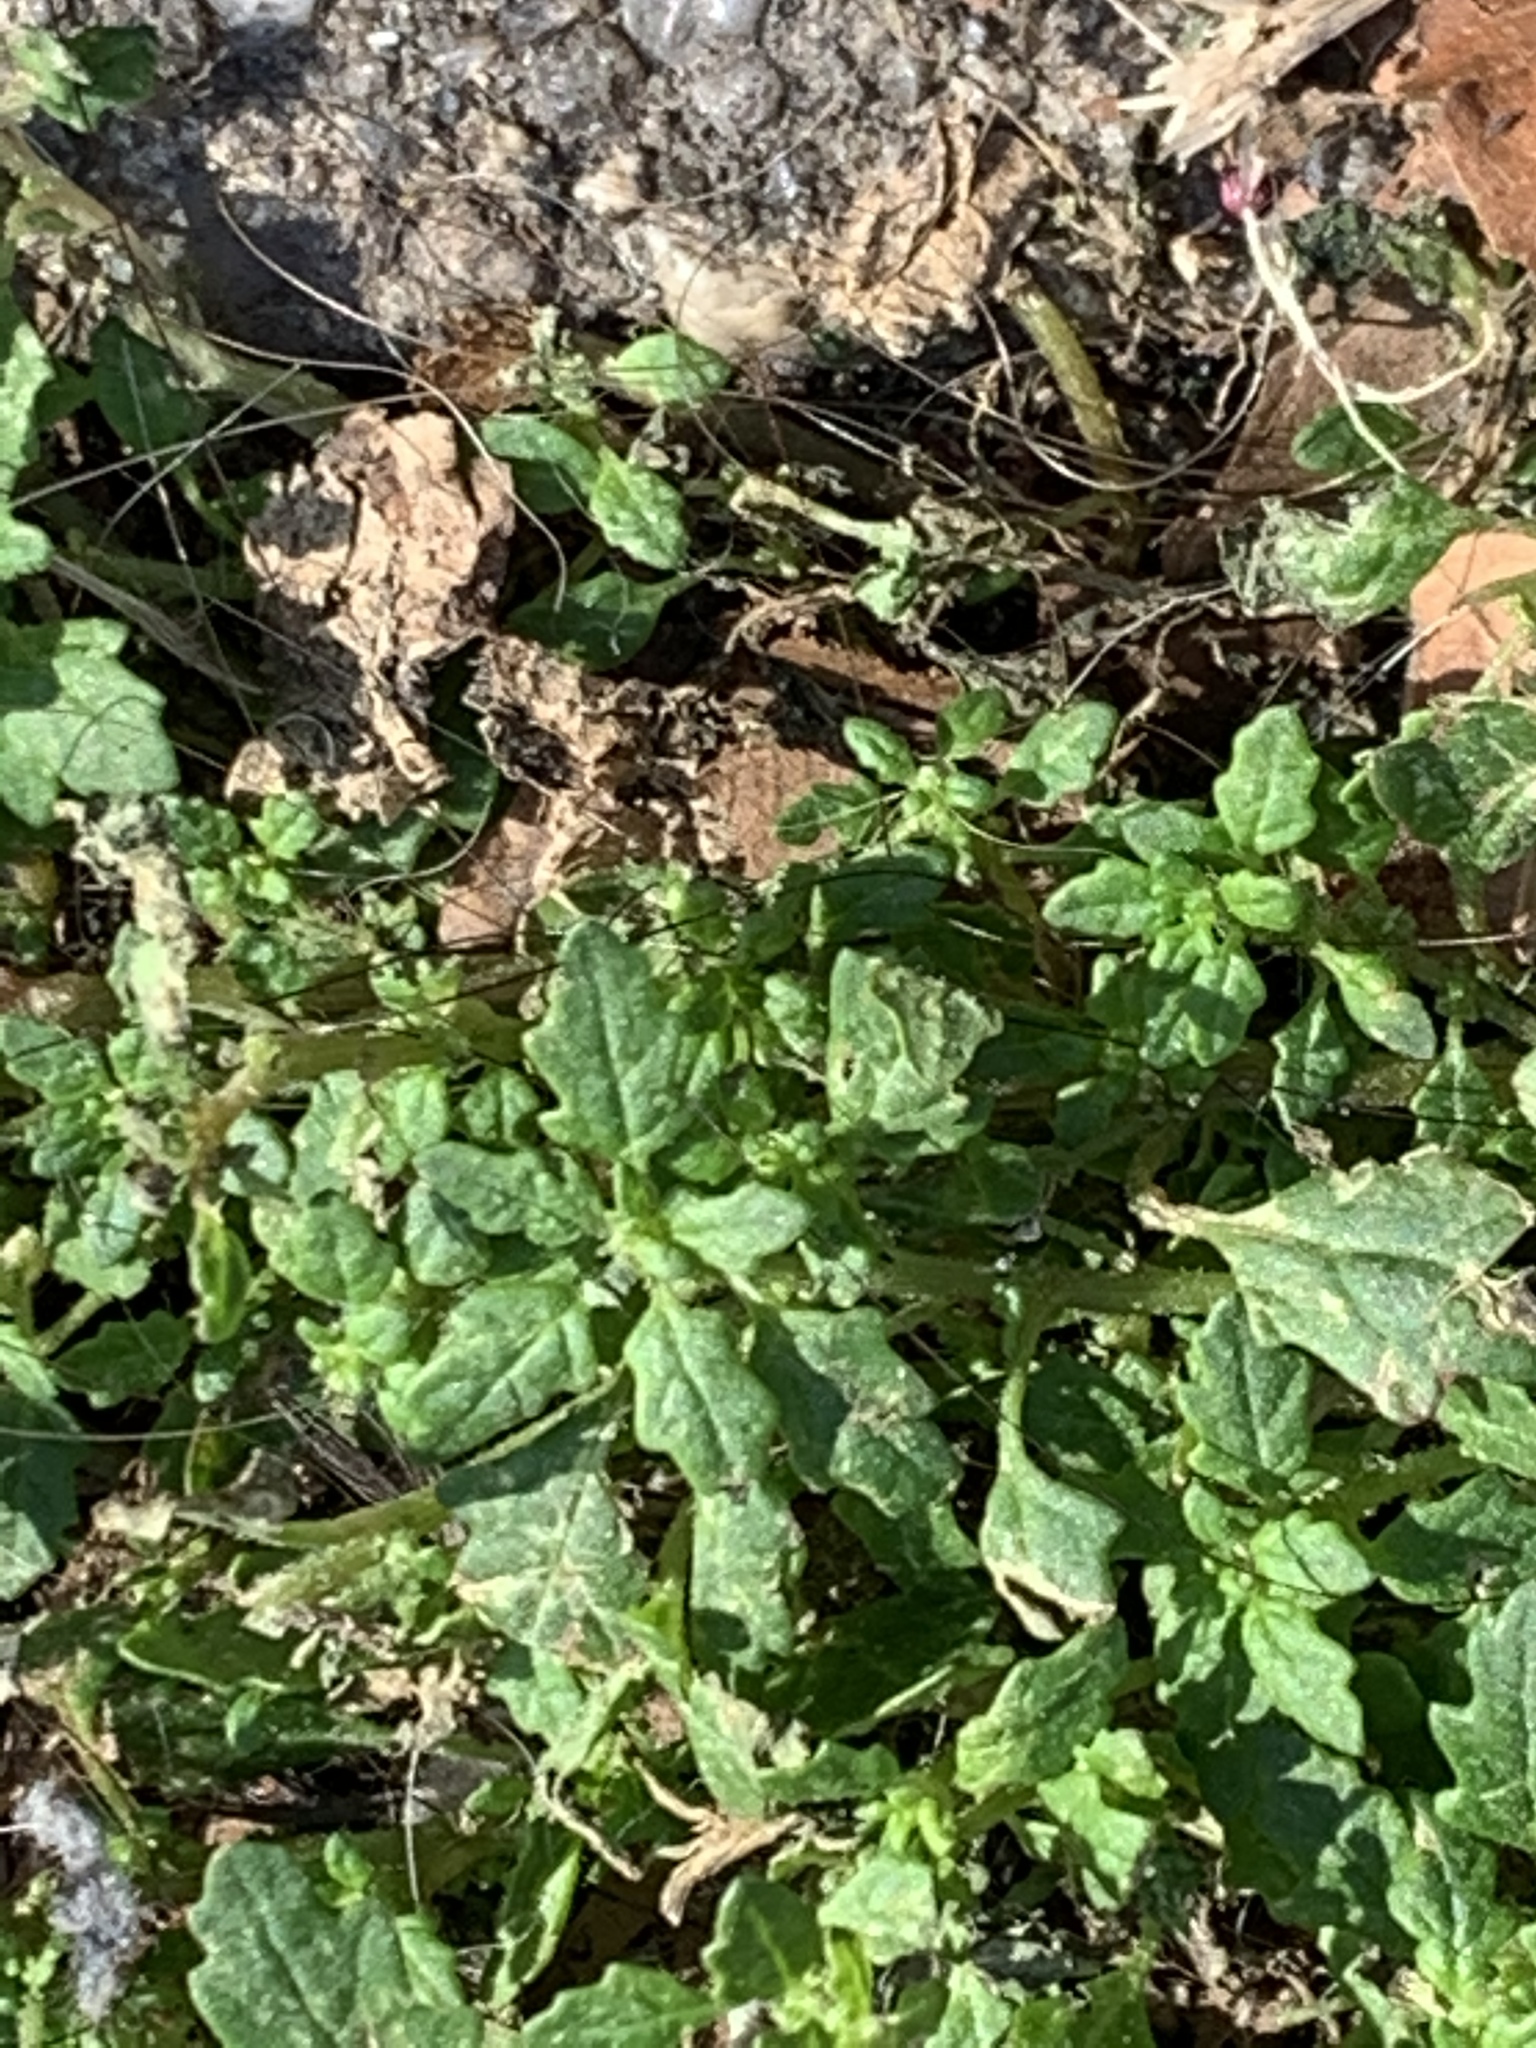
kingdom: Plantae
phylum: Tracheophyta
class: Magnoliopsida
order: Caryophyllales
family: Amaranthaceae
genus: Dysphania
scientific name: Dysphania pumilio
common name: Clammy goosefoot
